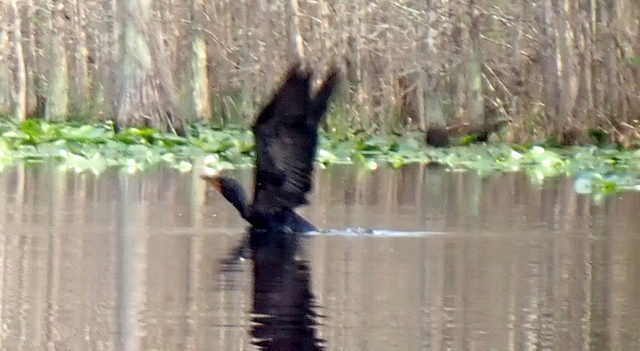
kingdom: Animalia
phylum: Chordata
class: Aves
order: Suliformes
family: Phalacrocoracidae
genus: Phalacrocorax
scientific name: Phalacrocorax auritus
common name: Double-crested cormorant
